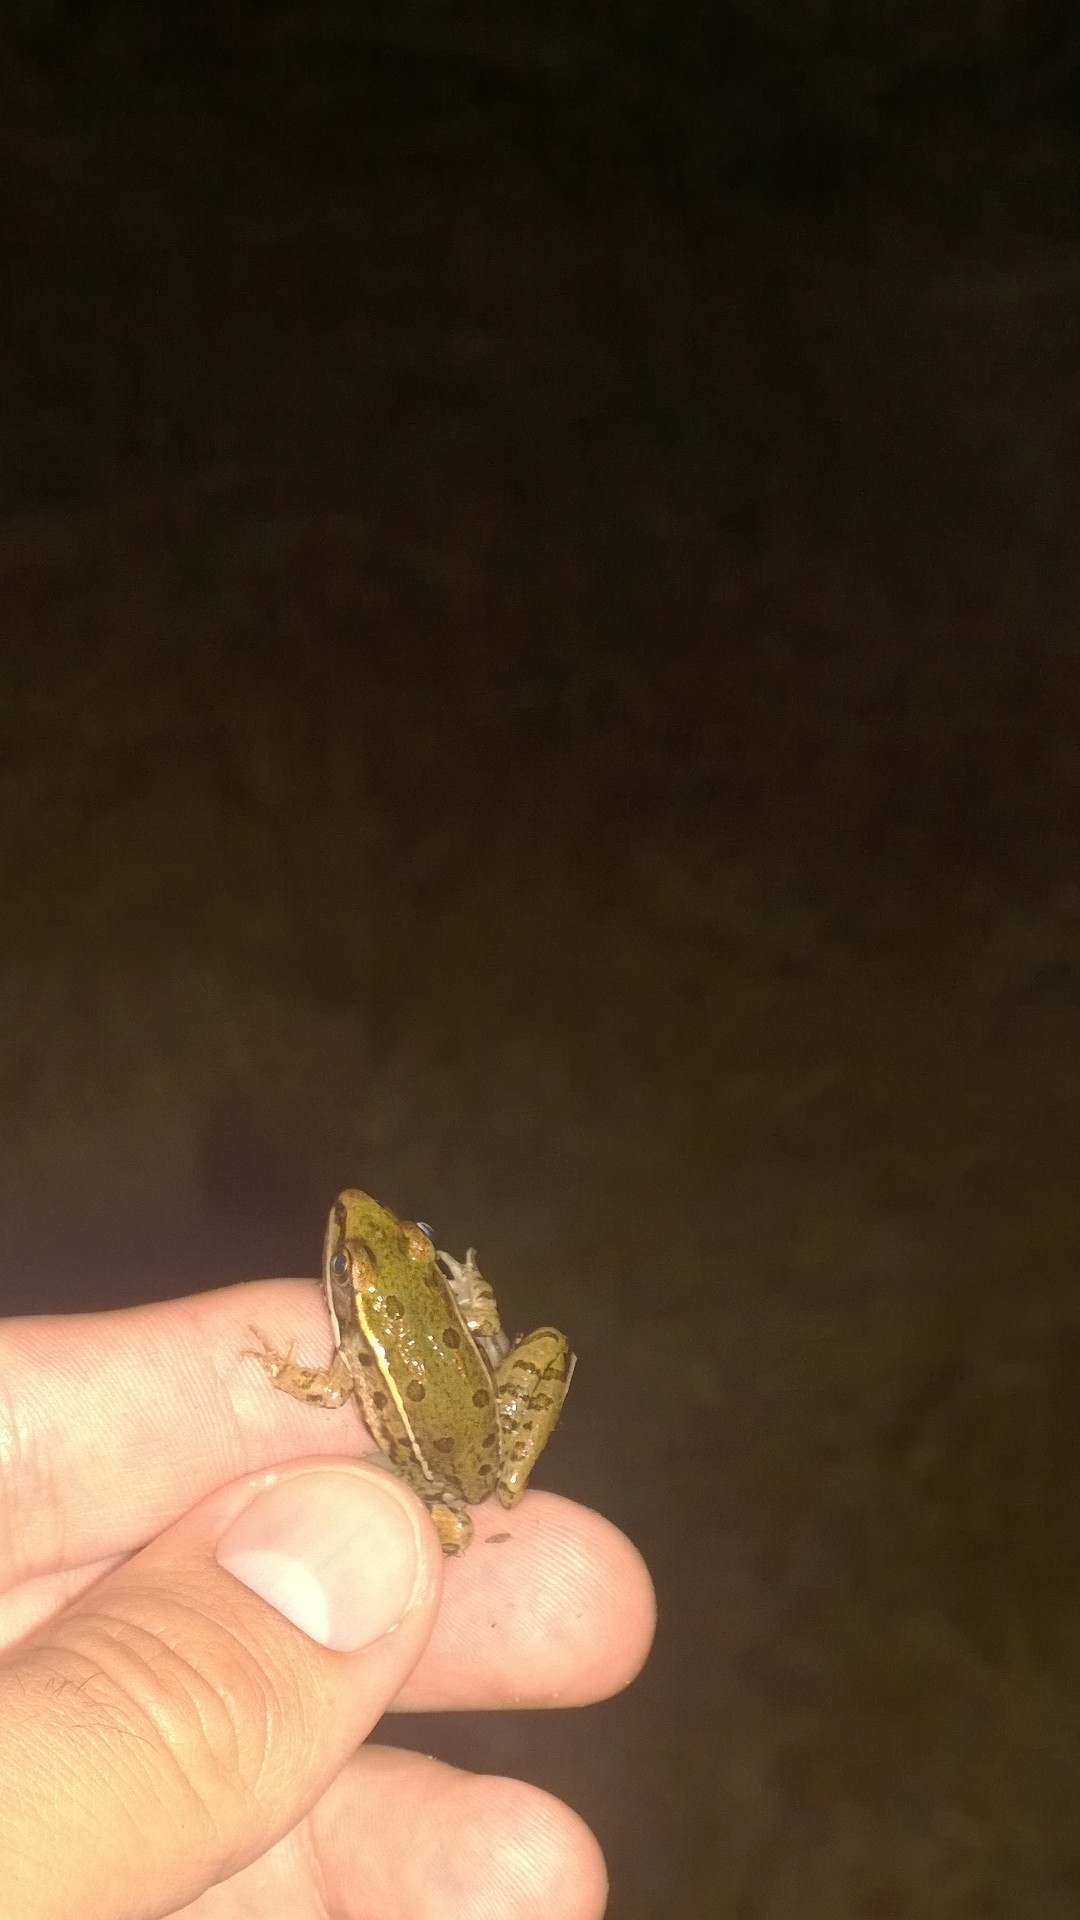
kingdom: Animalia
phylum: Chordata
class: Amphibia
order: Anura
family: Ranidae
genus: Lithobates
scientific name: Lithobates sphenocephalus
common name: Southern leopard frog
